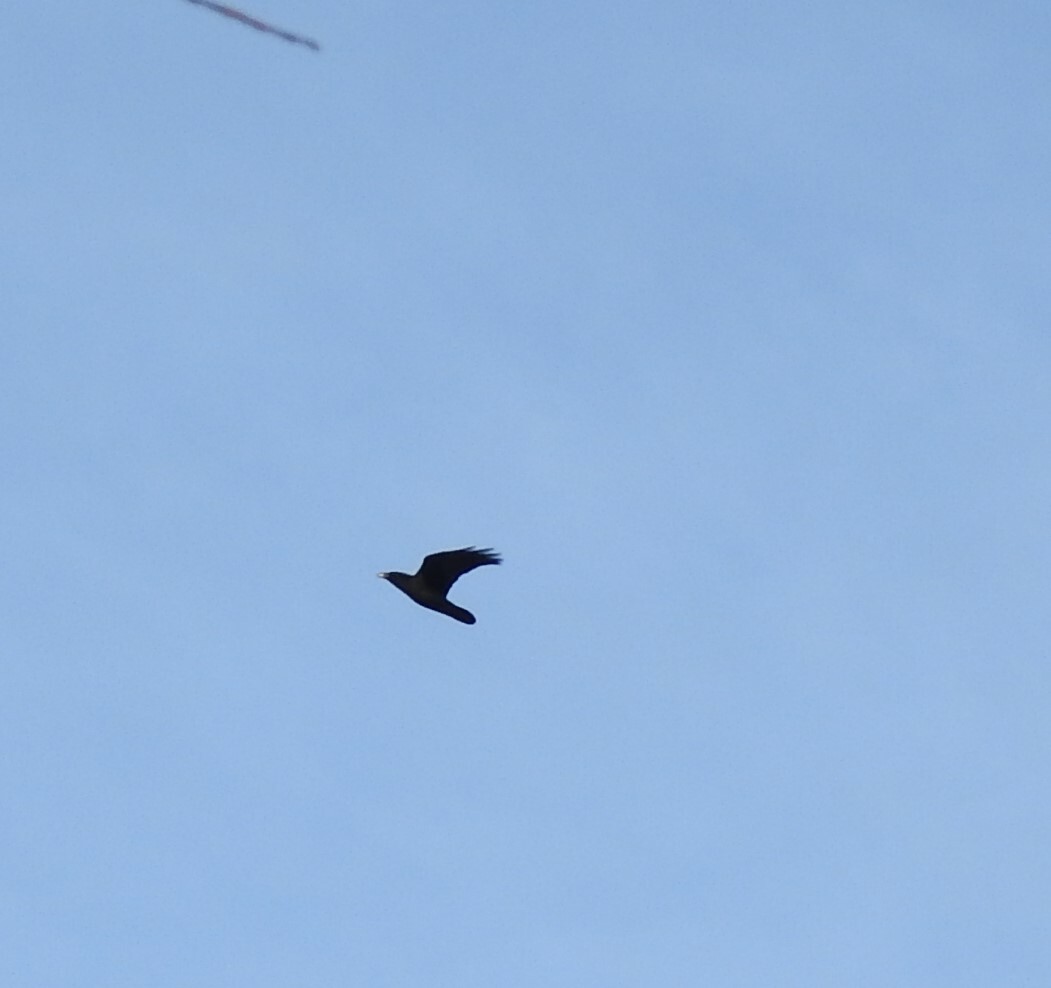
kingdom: Animalia
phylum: Chordata
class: Aves
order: Passeriformes
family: Corvidae
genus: Corvus
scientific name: Corvus corax
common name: Common raven
